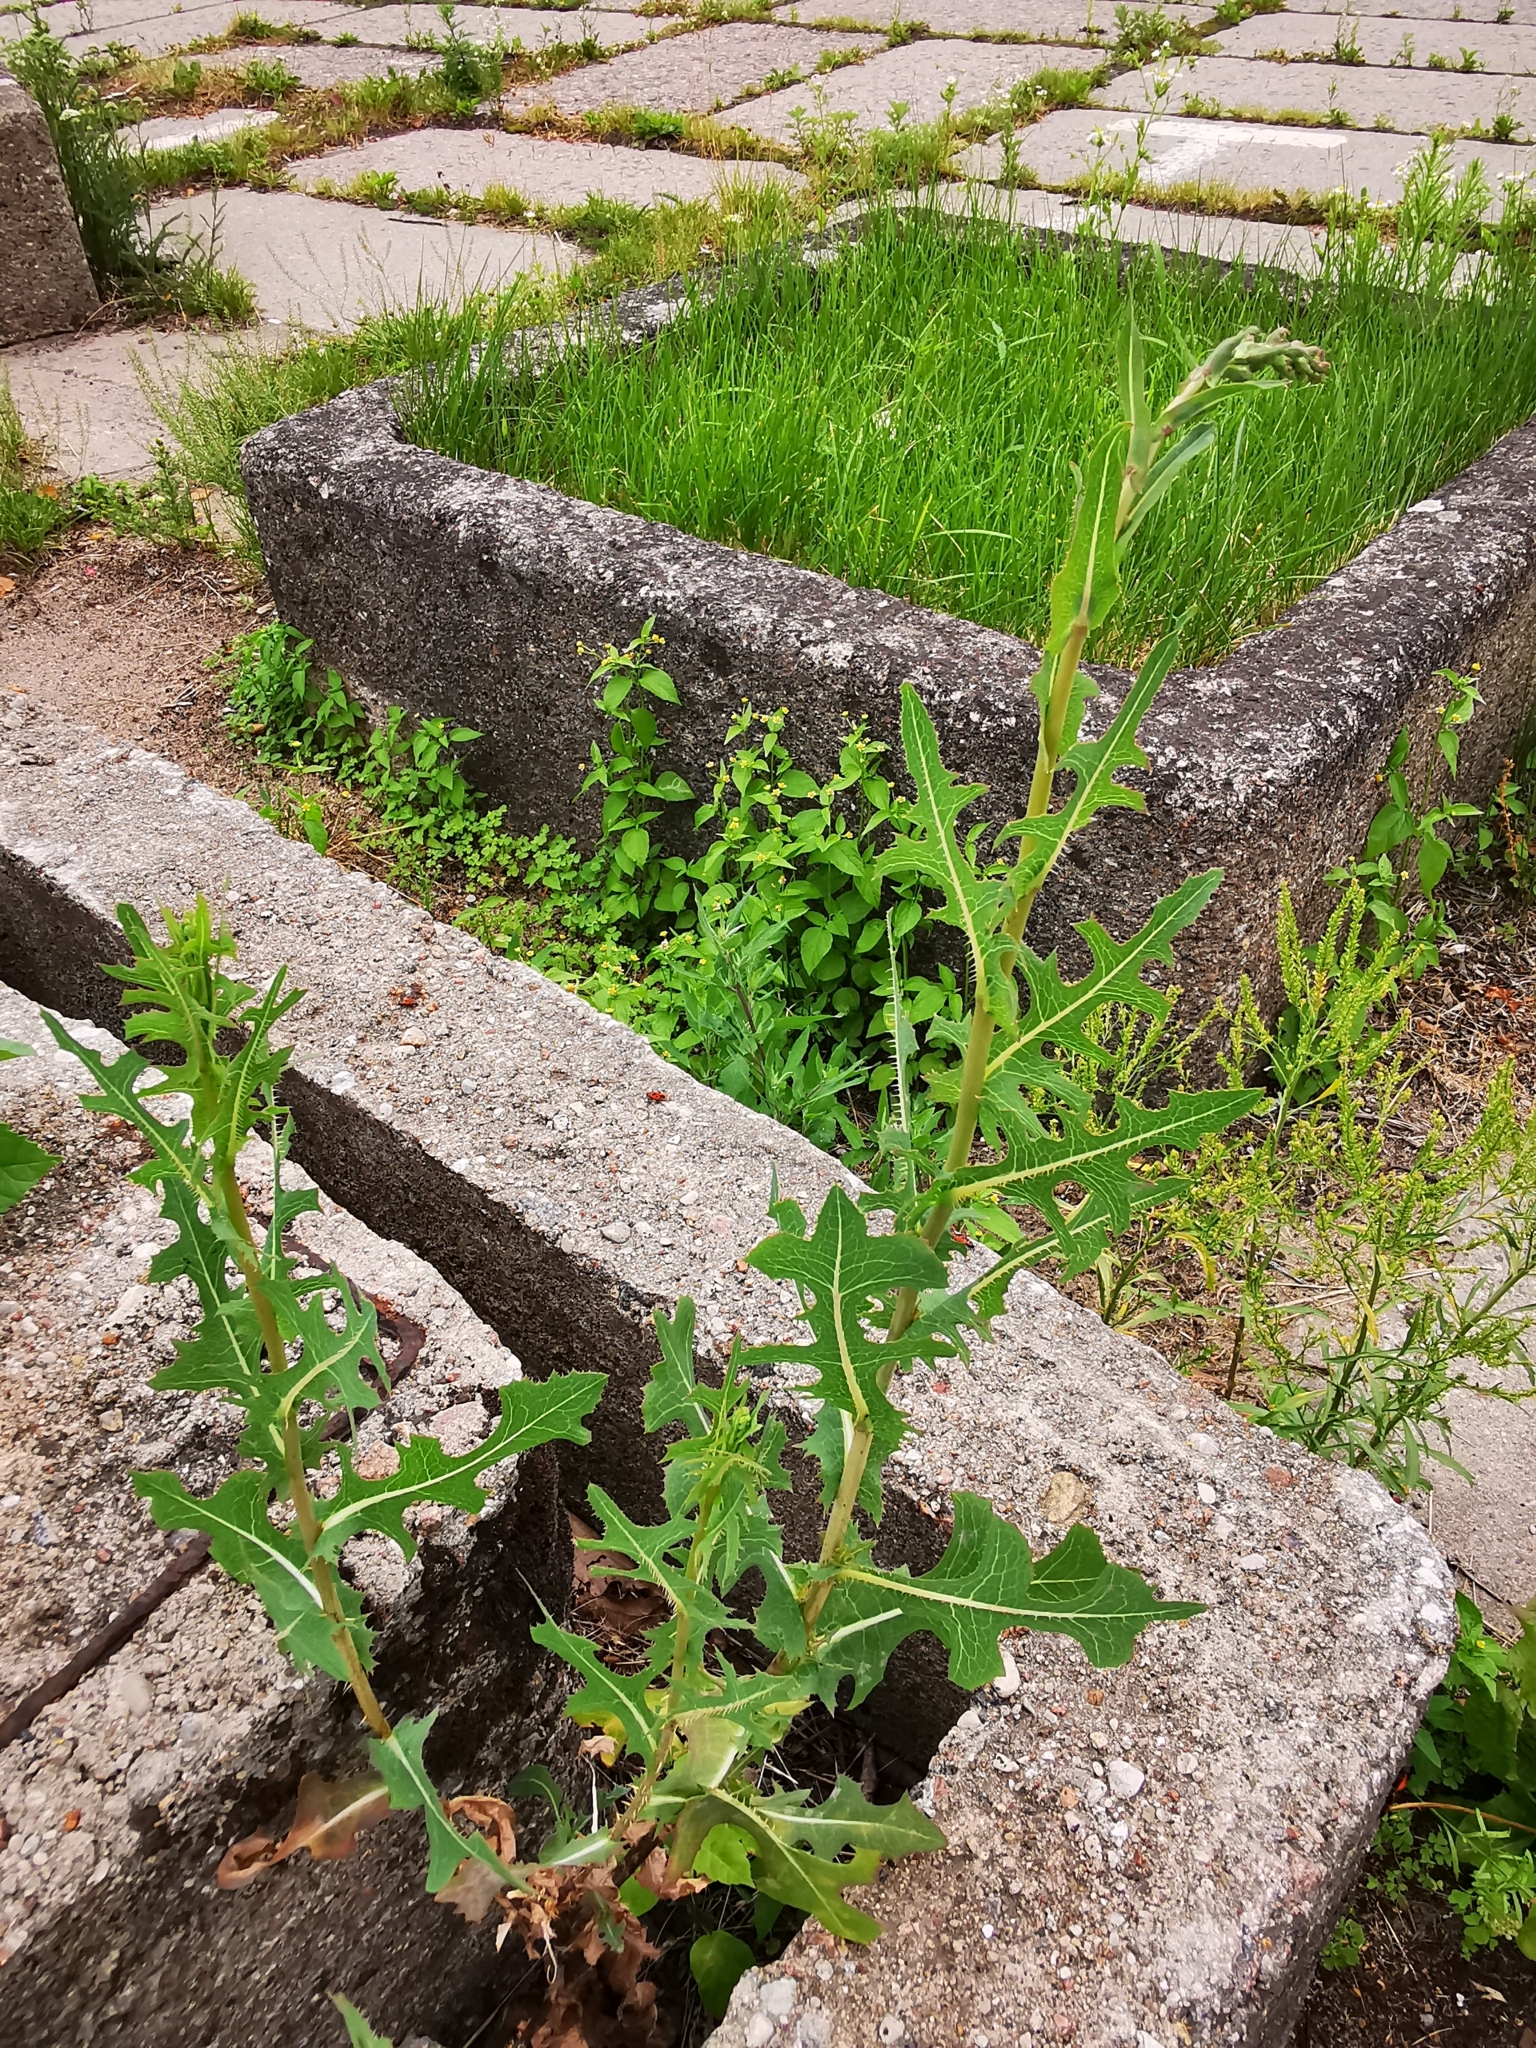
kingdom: Plantae
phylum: Tracheophyta
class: Magnoliopsida
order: Asterales
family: Asteraceae
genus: Lactuca
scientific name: Lactuca serriola
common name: Prickly lettuce
